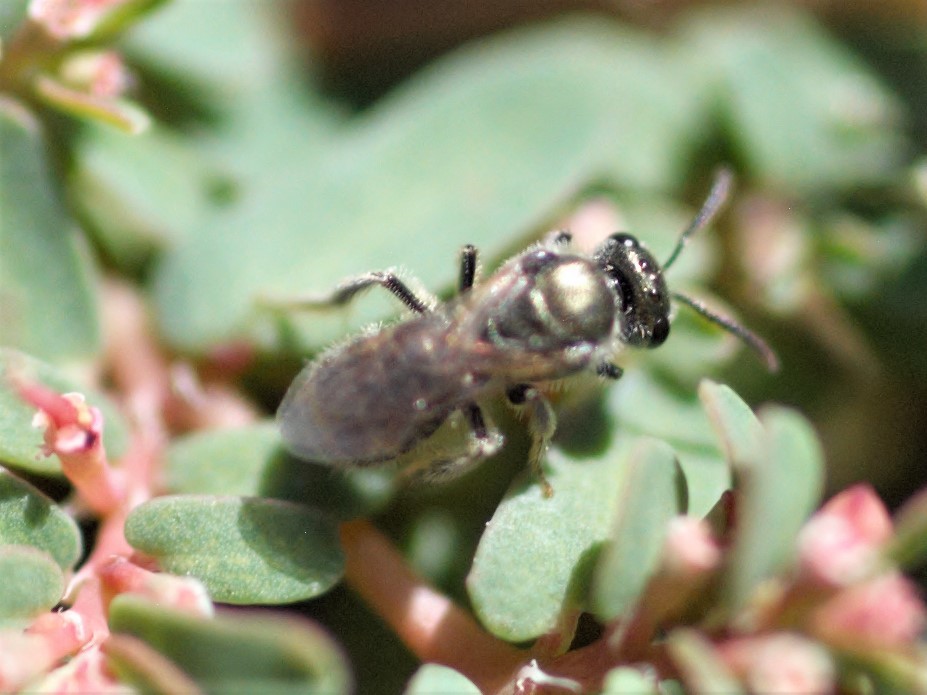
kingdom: Animalia
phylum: Arthropoda
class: Insecta
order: Hymenoptera
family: Halictidae
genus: Dialictus
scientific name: Dialictus
